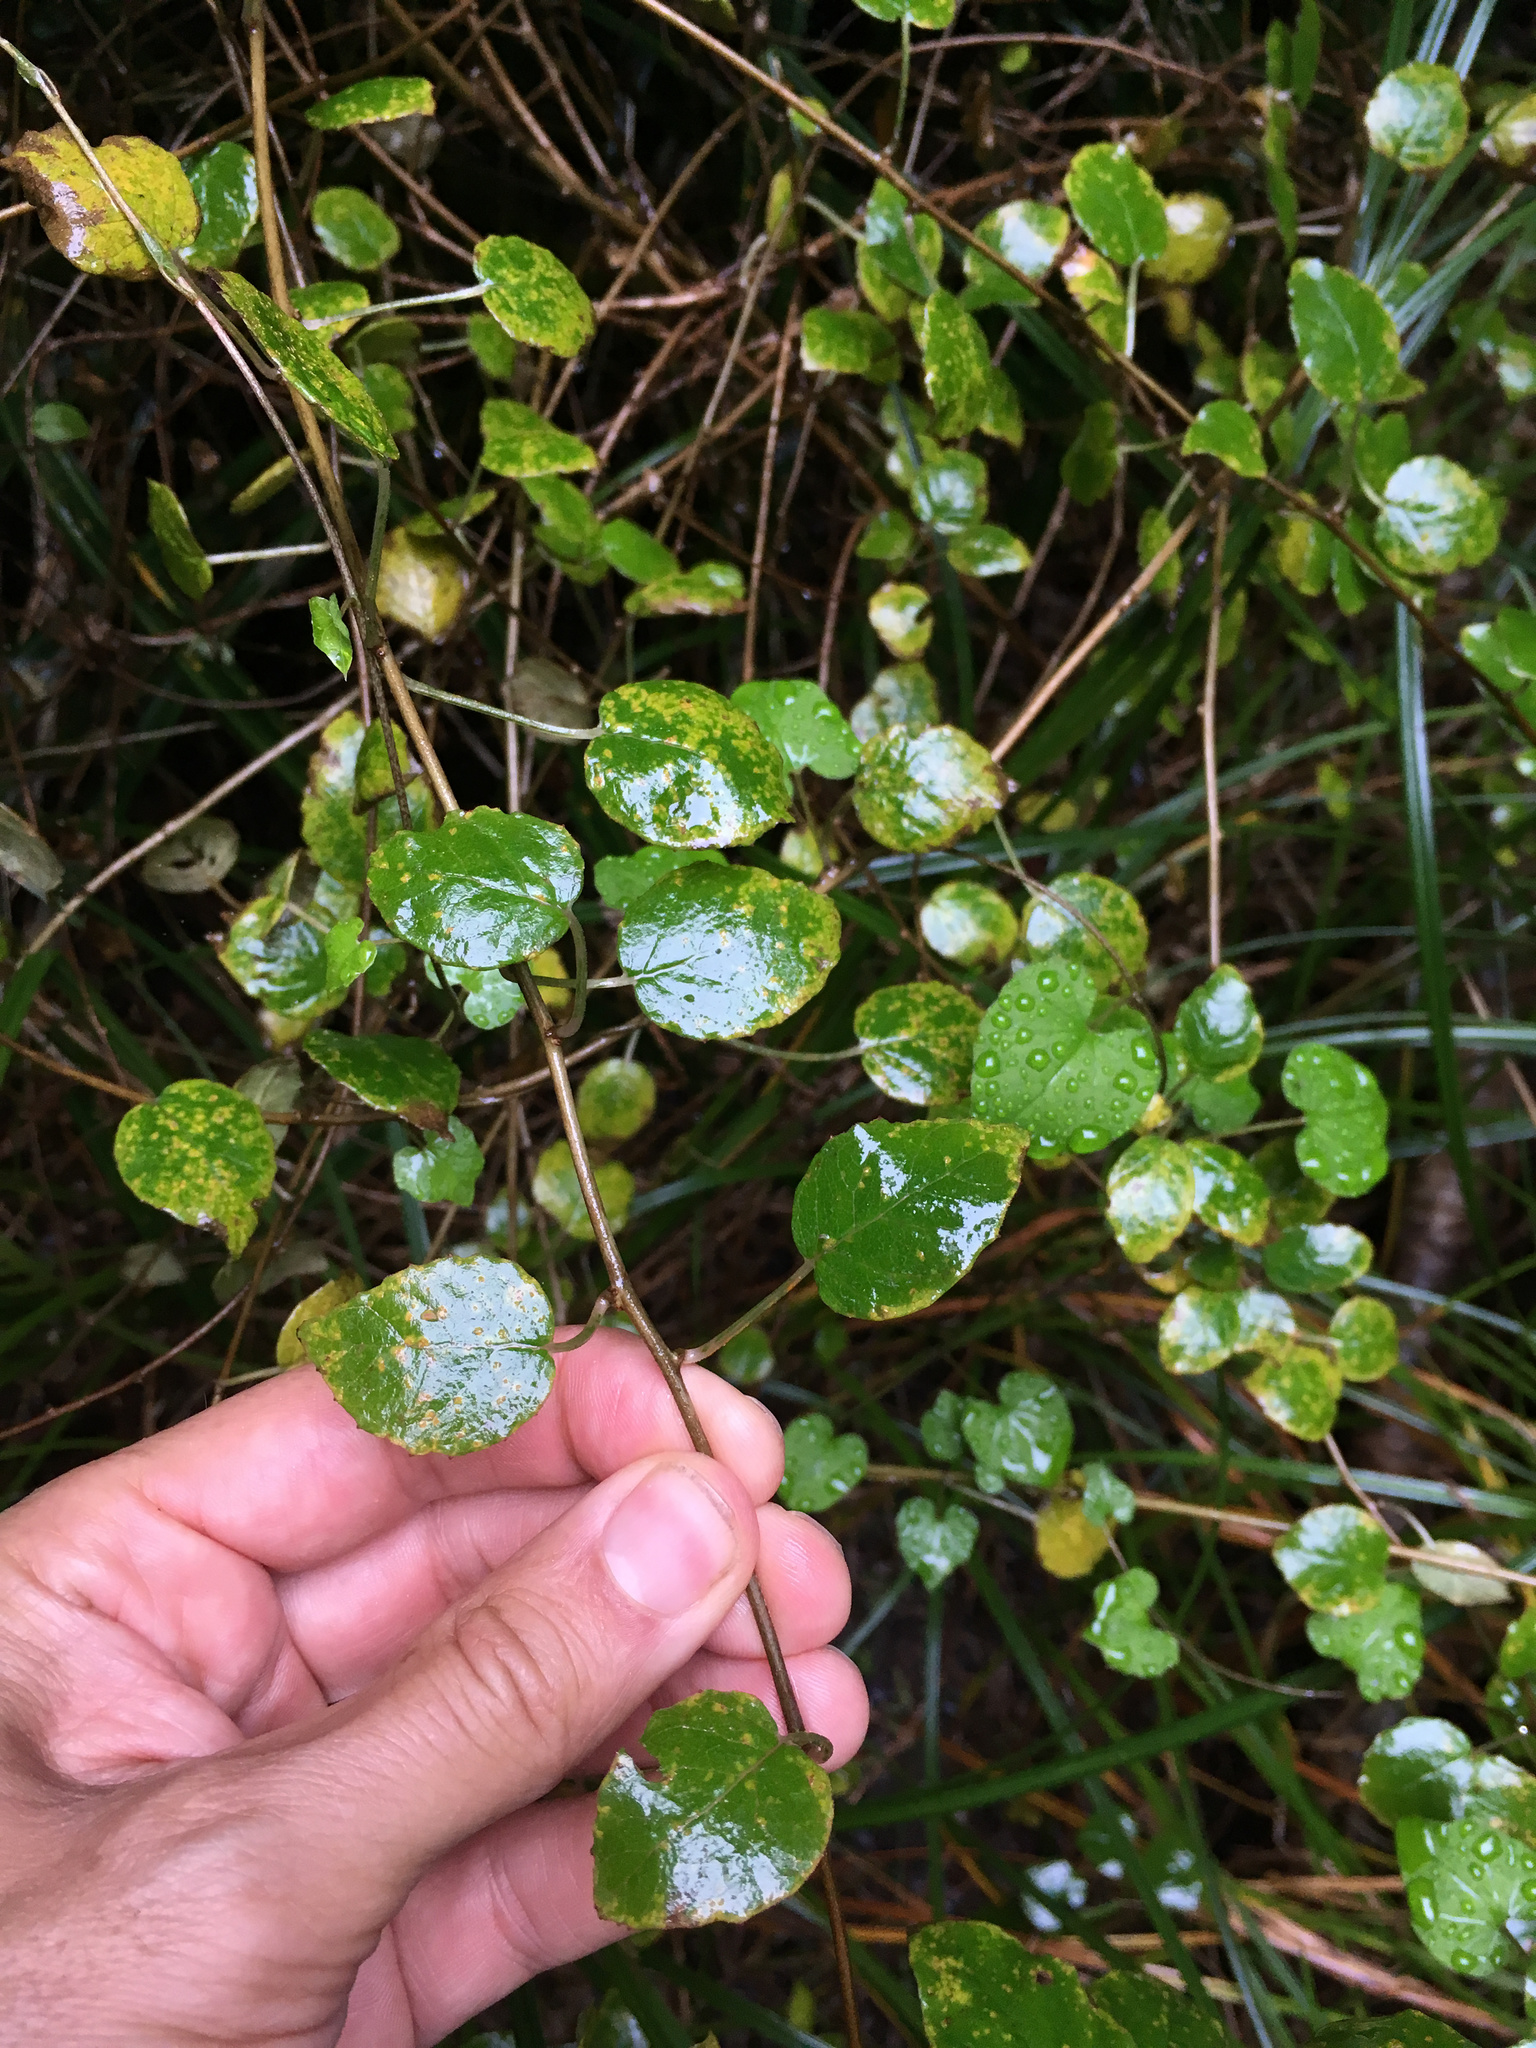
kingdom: Plantae
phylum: Tracheophyta
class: Magnoliopsida
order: Myrtales
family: Onagraceae
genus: Fuchsia
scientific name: Fuchsia perscandens
